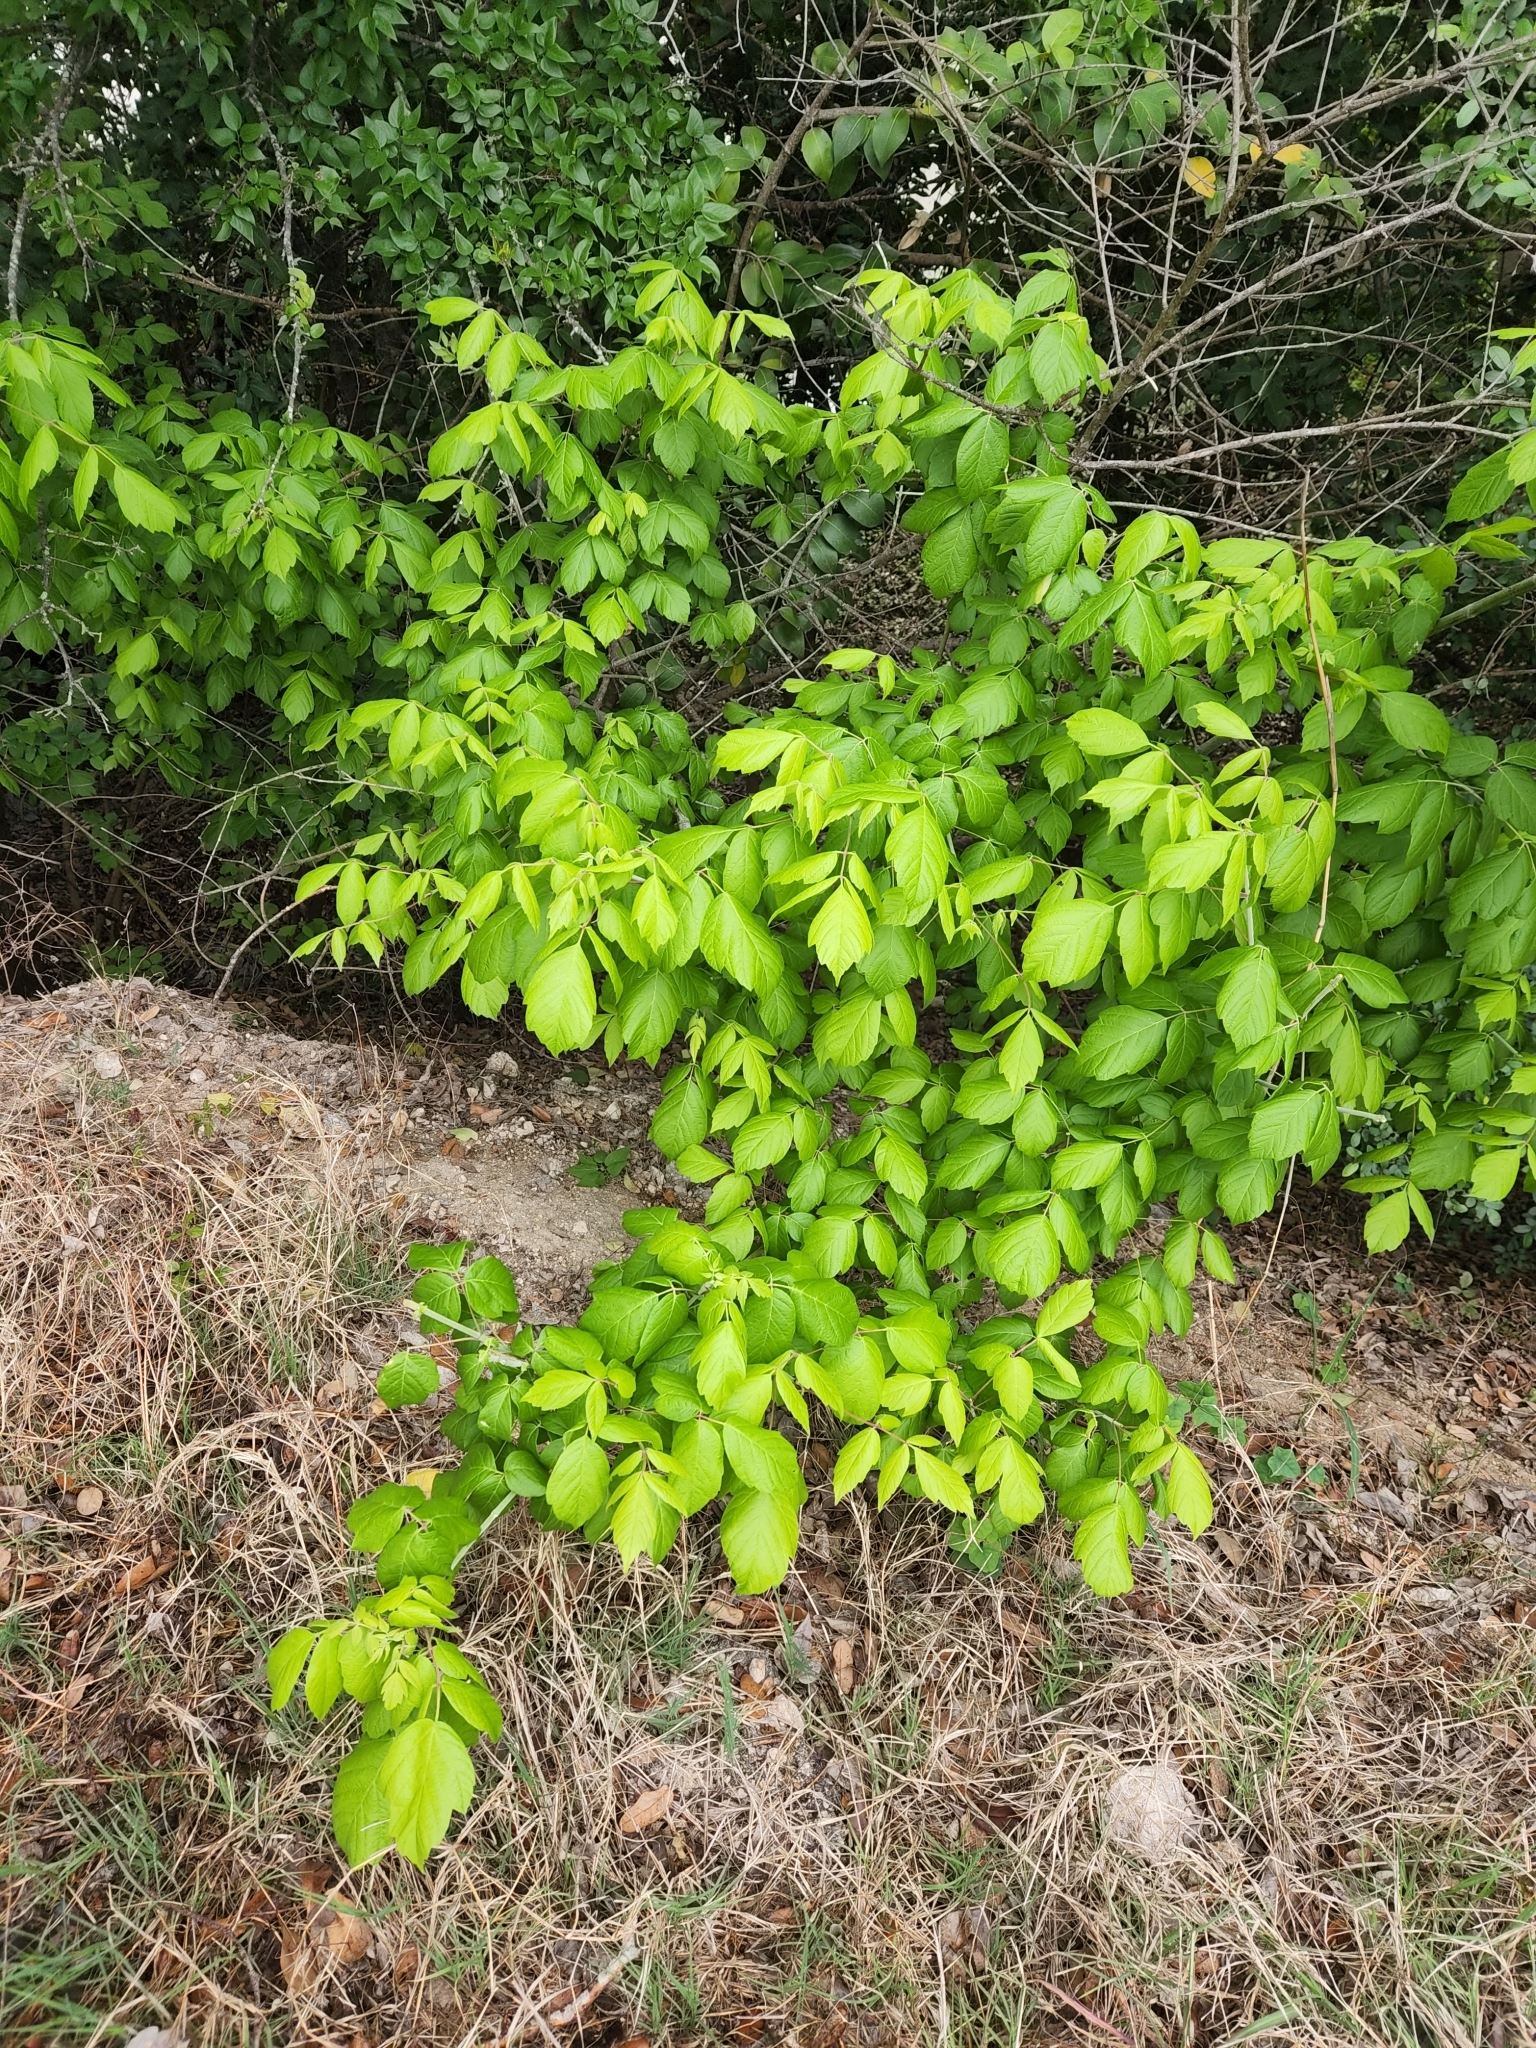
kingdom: Plantae
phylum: Tracheophyta
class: Magnoliopsida
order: Sapindales
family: Sapindaceae
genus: Acer
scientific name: Acer negundo
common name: Ashleaf maple
